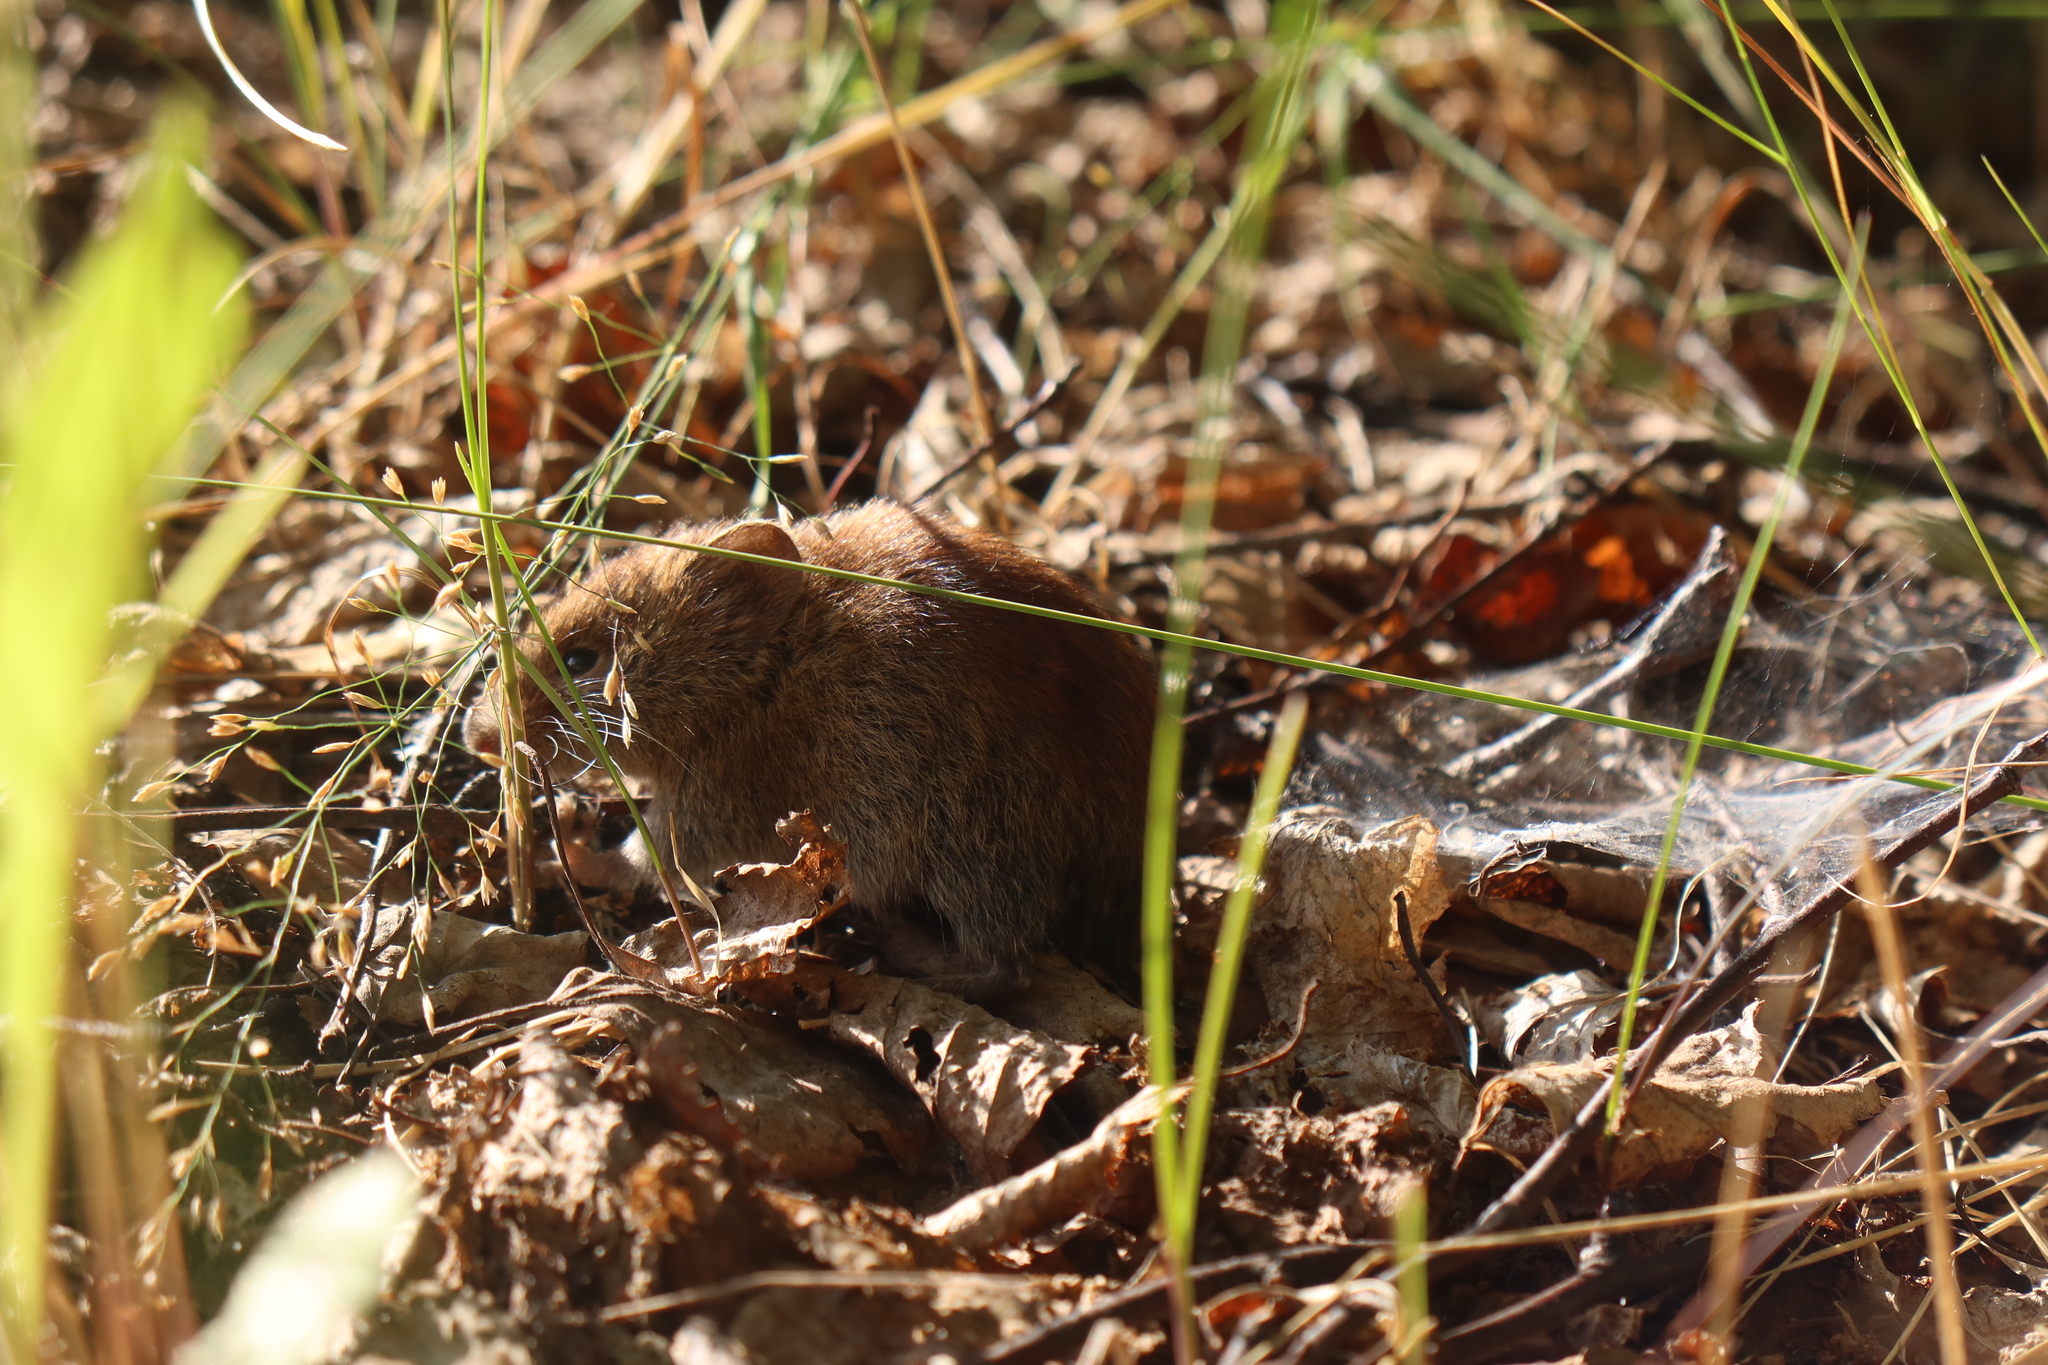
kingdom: Animalia
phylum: Chordata
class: Mammalia
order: Rodentia
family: Cricetidae
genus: Myodes
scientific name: Myodes rutilus
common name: Northern red-backed vole
